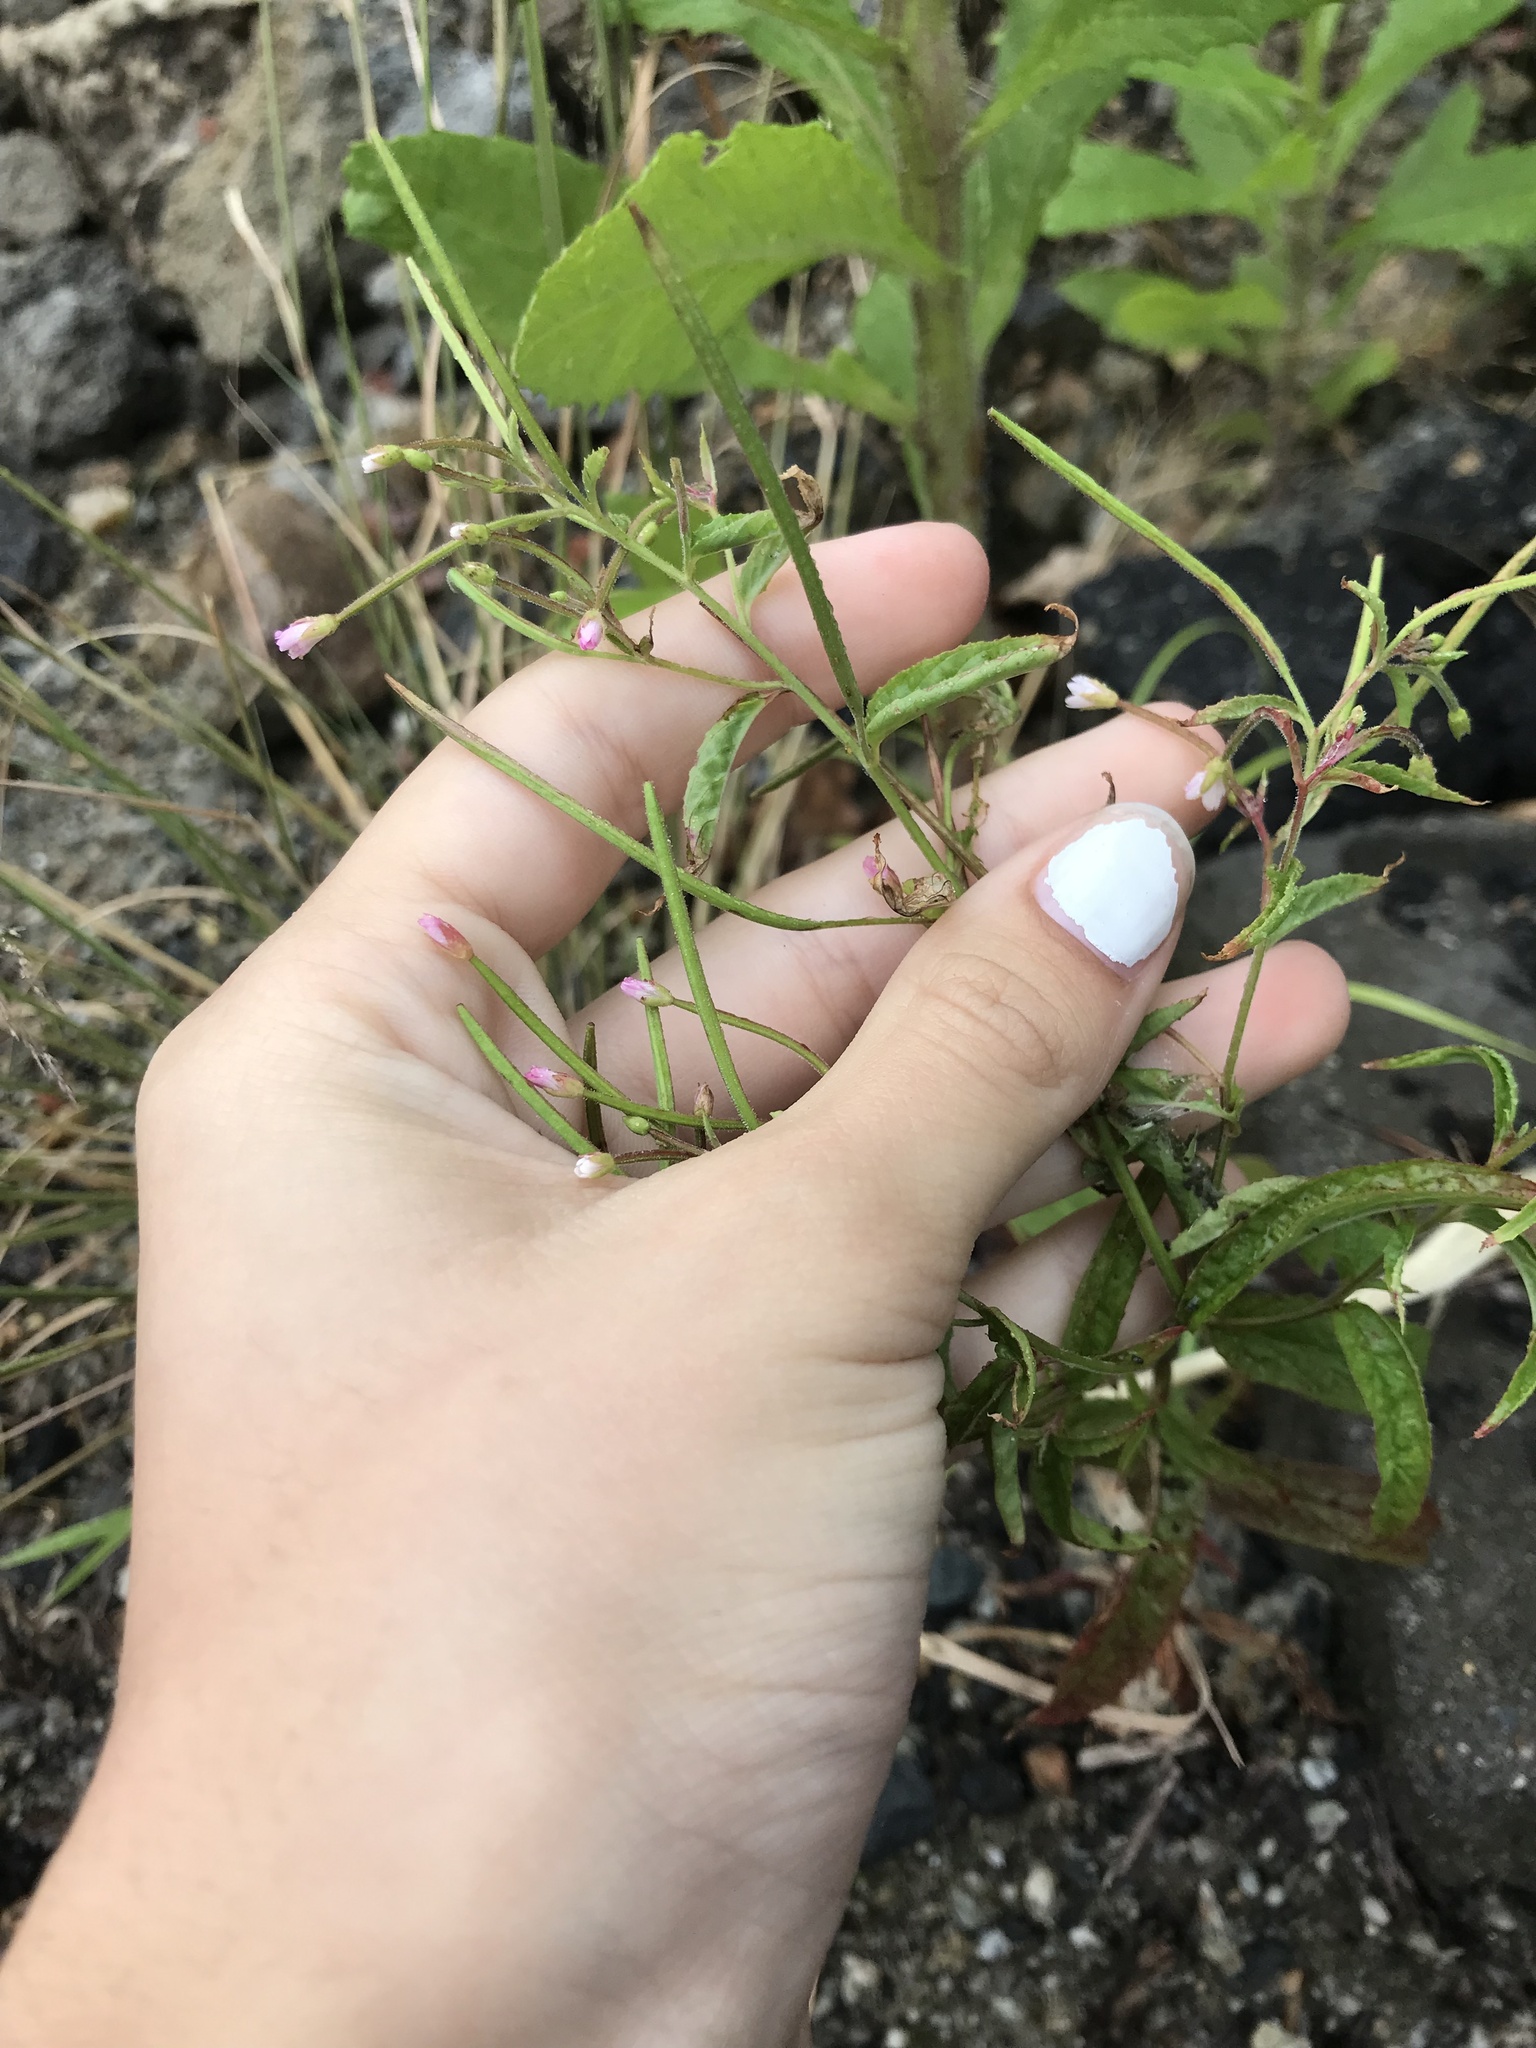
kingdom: Plantae
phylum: Tracheophyta
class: Magnoliopsida
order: Myrtales
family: Onagraceae
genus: Epilobium
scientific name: Epilobium coloratum
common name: Bronze willowherb
